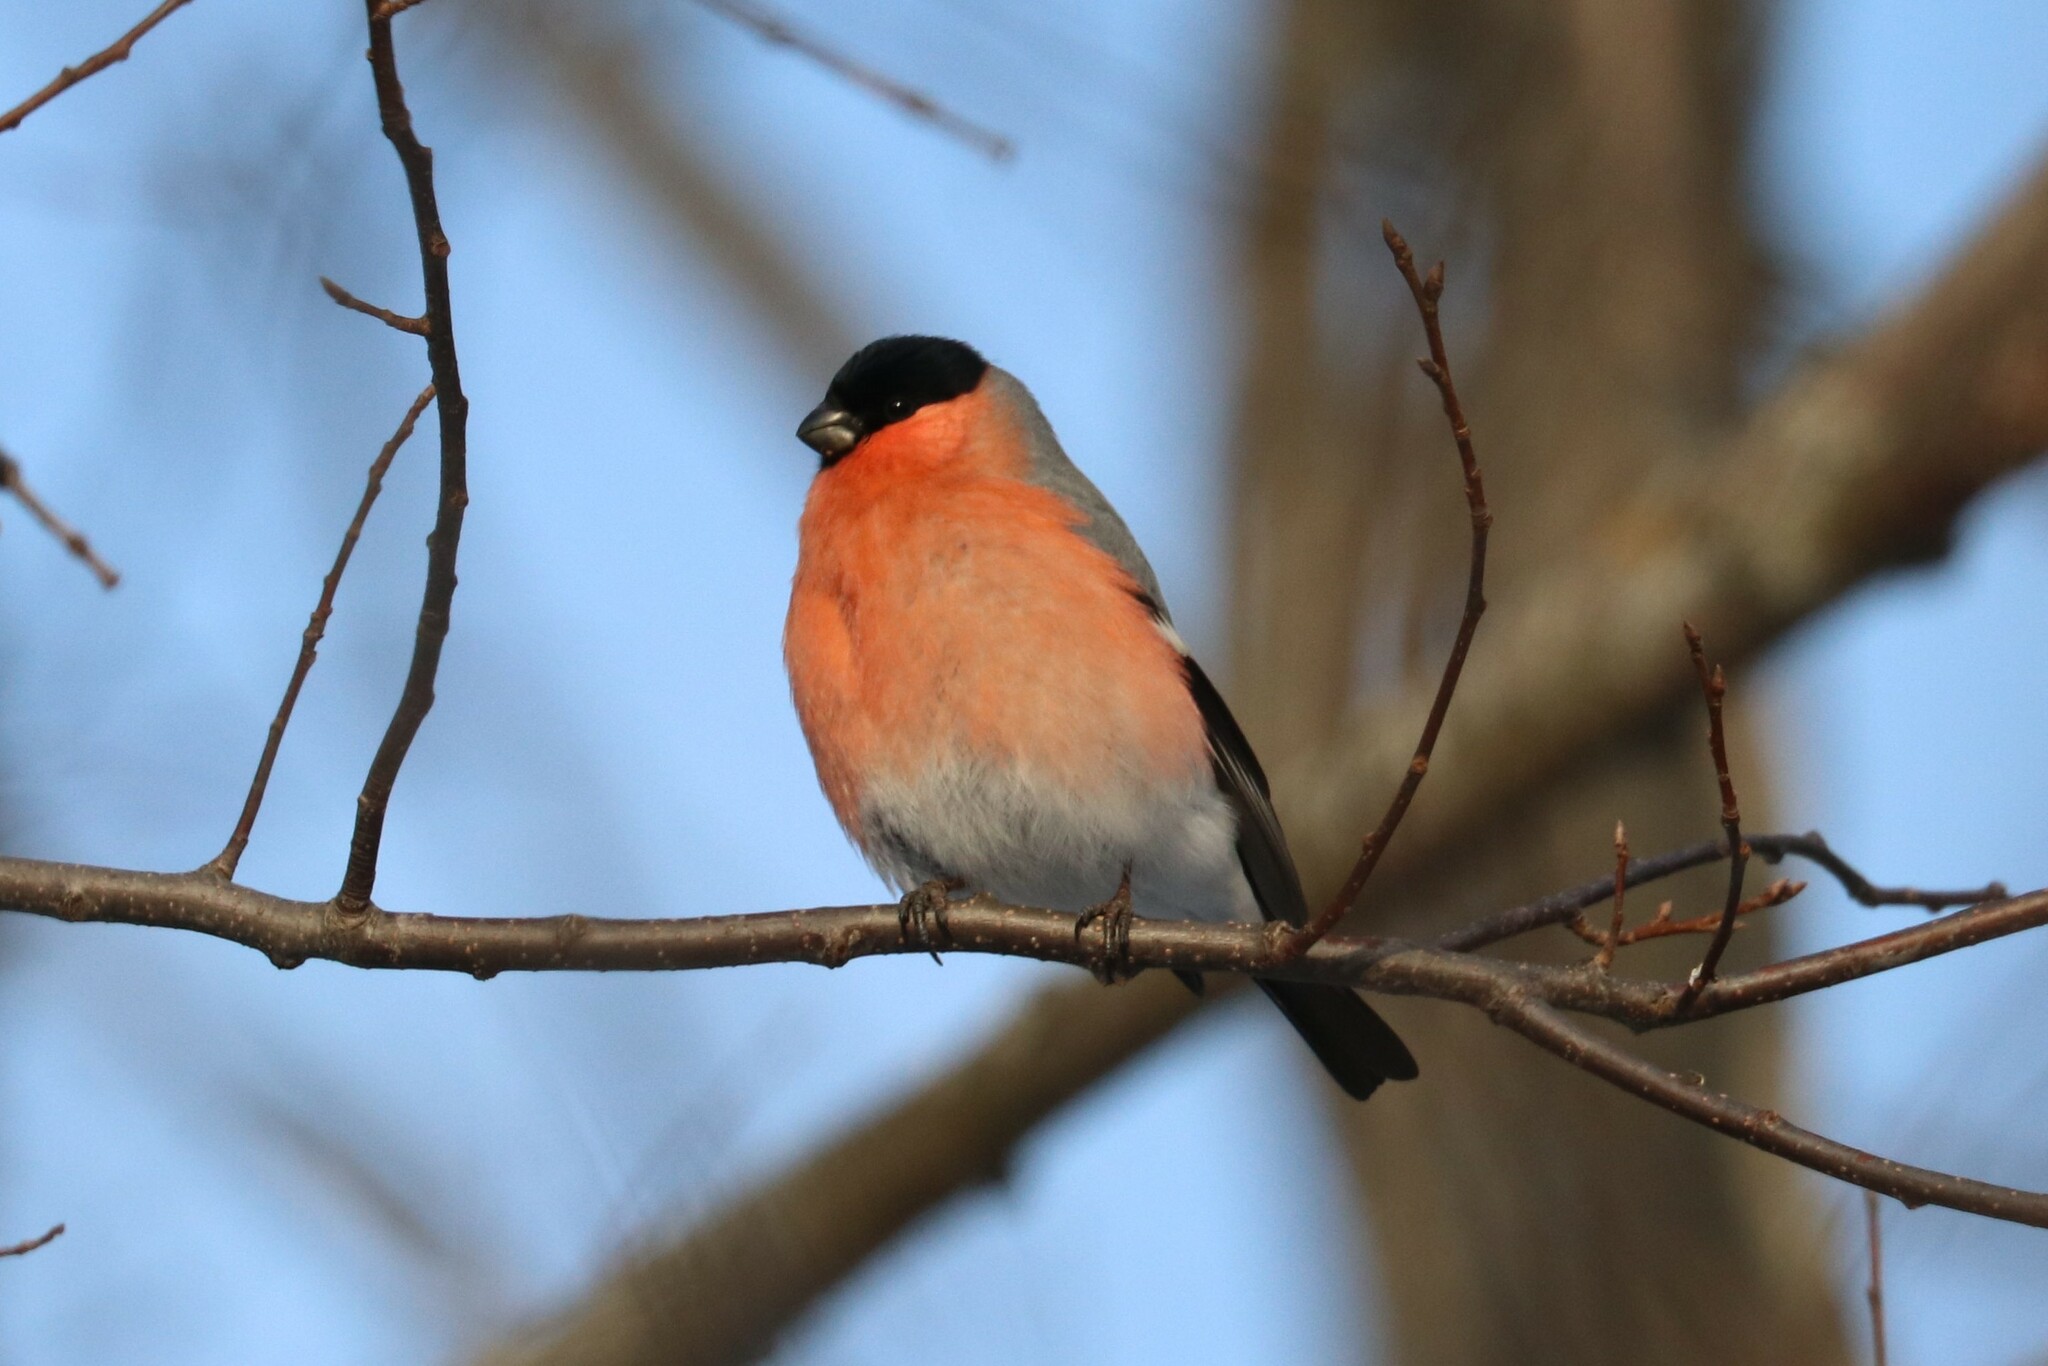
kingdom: Animalia
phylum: Chordata
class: Aves
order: Passeriformes
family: Fringillidae
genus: Pyrrhula
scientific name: Pyrrhula pyrrhula
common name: Eurasian bullfinch
